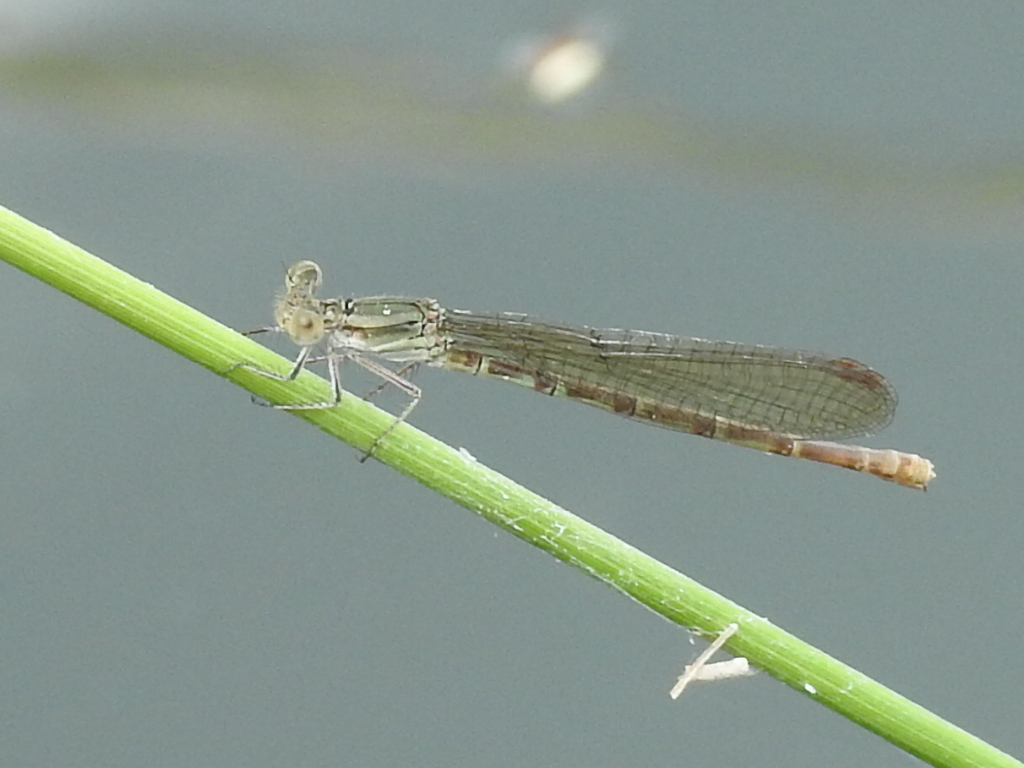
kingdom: Animalia
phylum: Arthropoda
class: Insecta
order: Odonata
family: Coenagrionidae
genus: Argia
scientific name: Argia sedula
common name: Blue-ringed dancer
